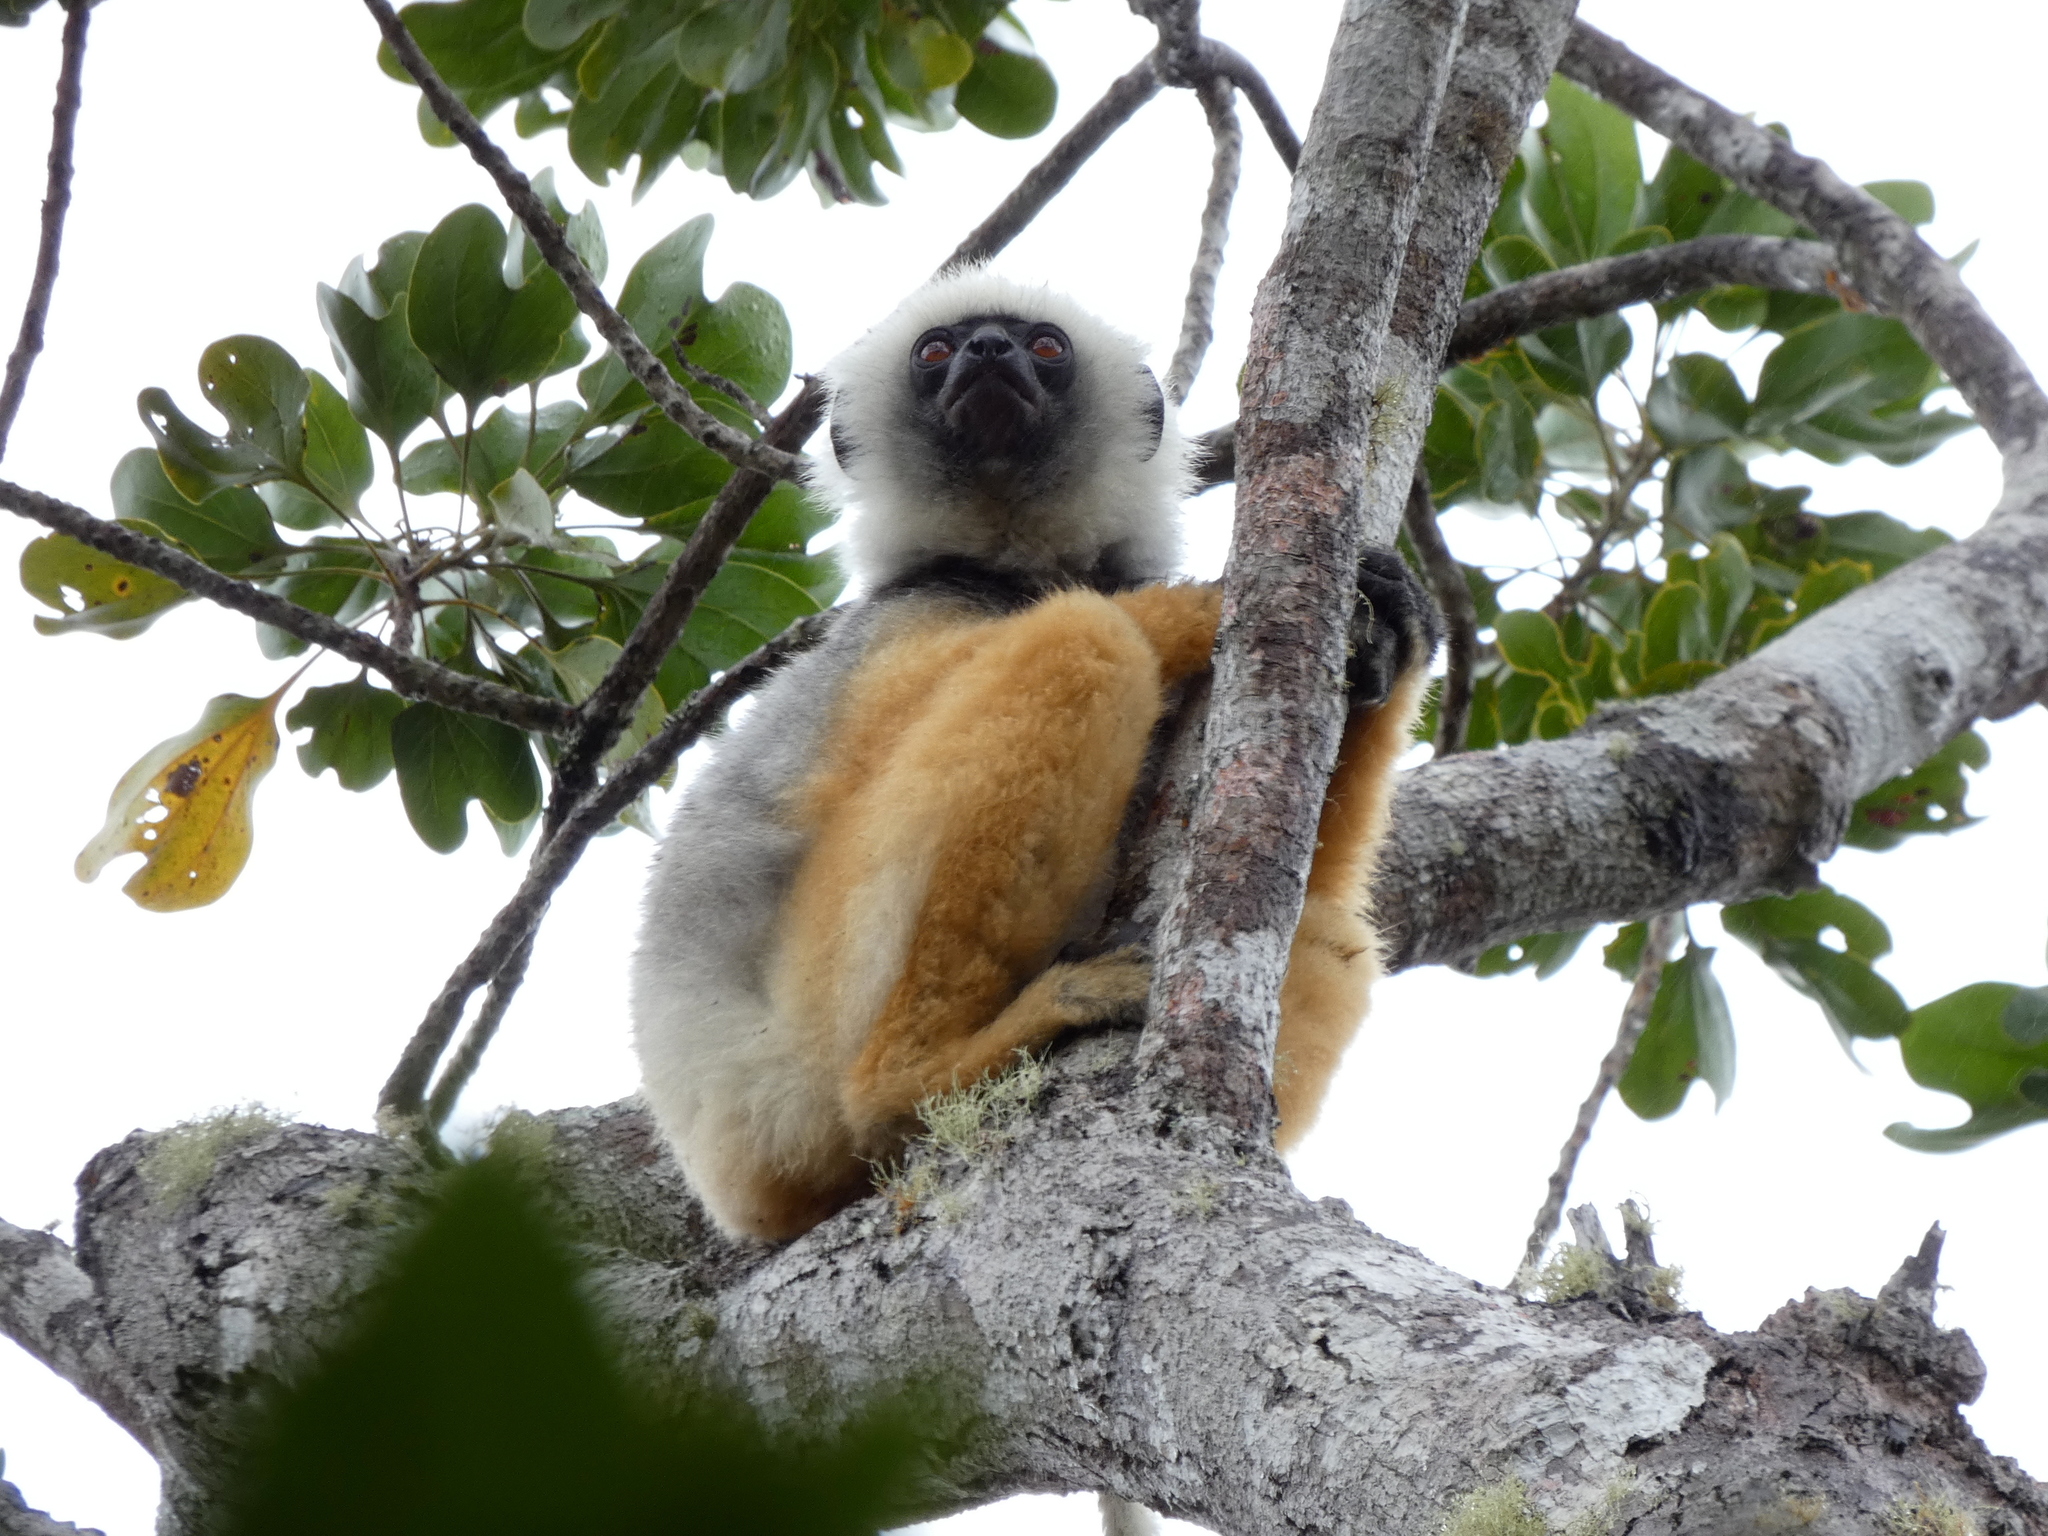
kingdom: Animalia
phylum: Chordata
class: Mammalia
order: Primates
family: Indriidae
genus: Propithecus
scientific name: Propithecus diadema
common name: Diademed sifaka
